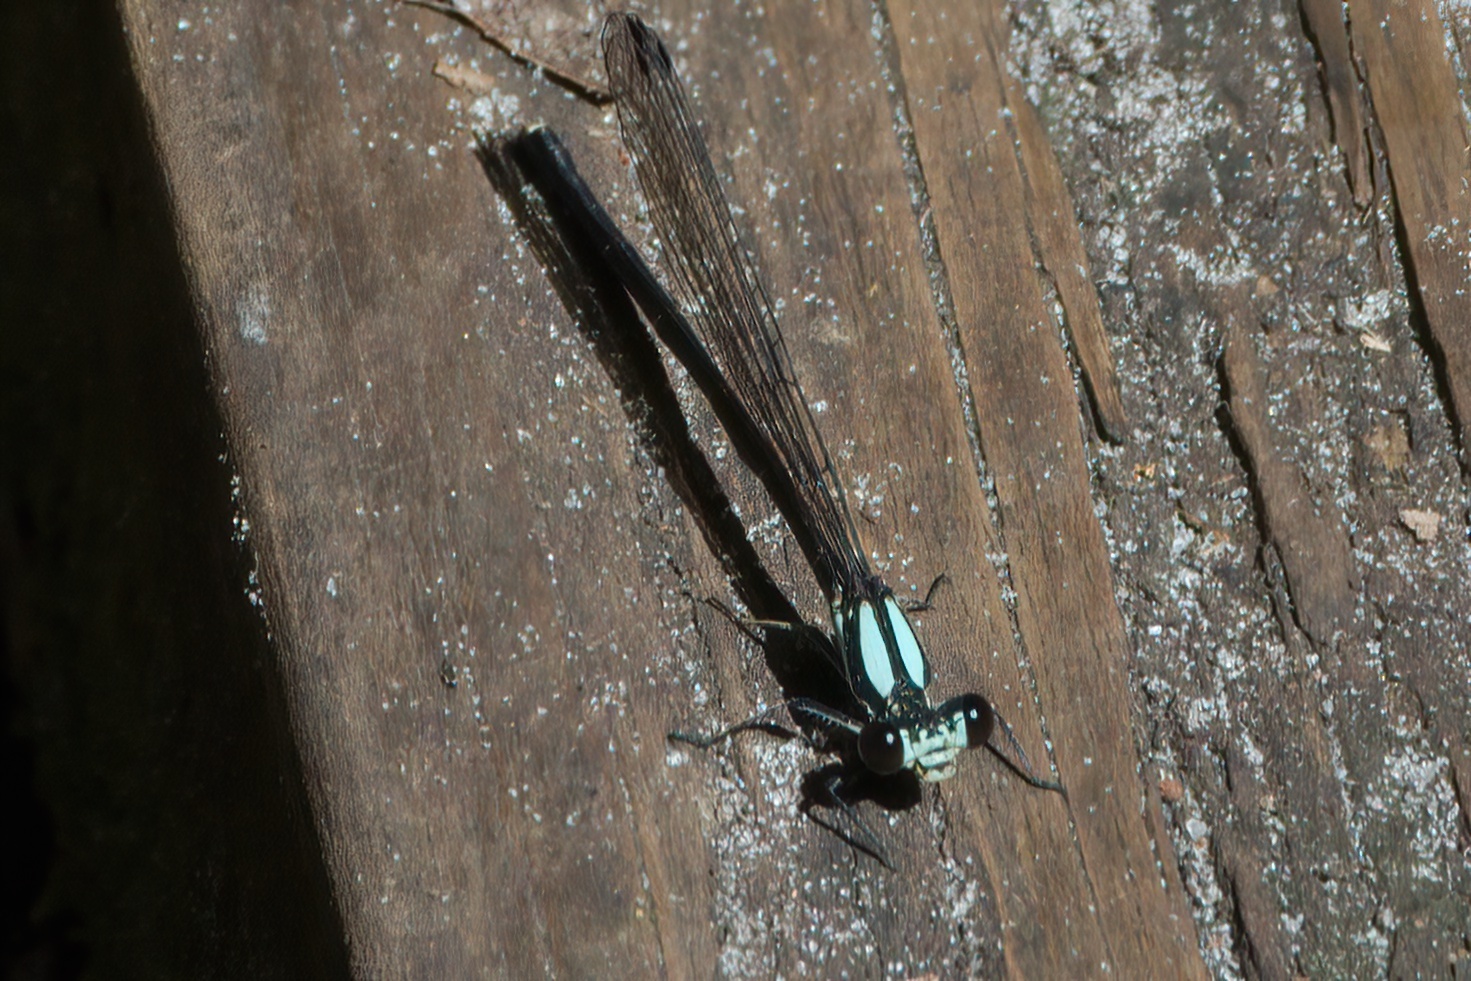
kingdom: Animalia
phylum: Arthropoda
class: Insecta
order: Odonata
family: Coenagrionidae
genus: Argia
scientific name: Argia tibialis
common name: Blue-tipped dancer
